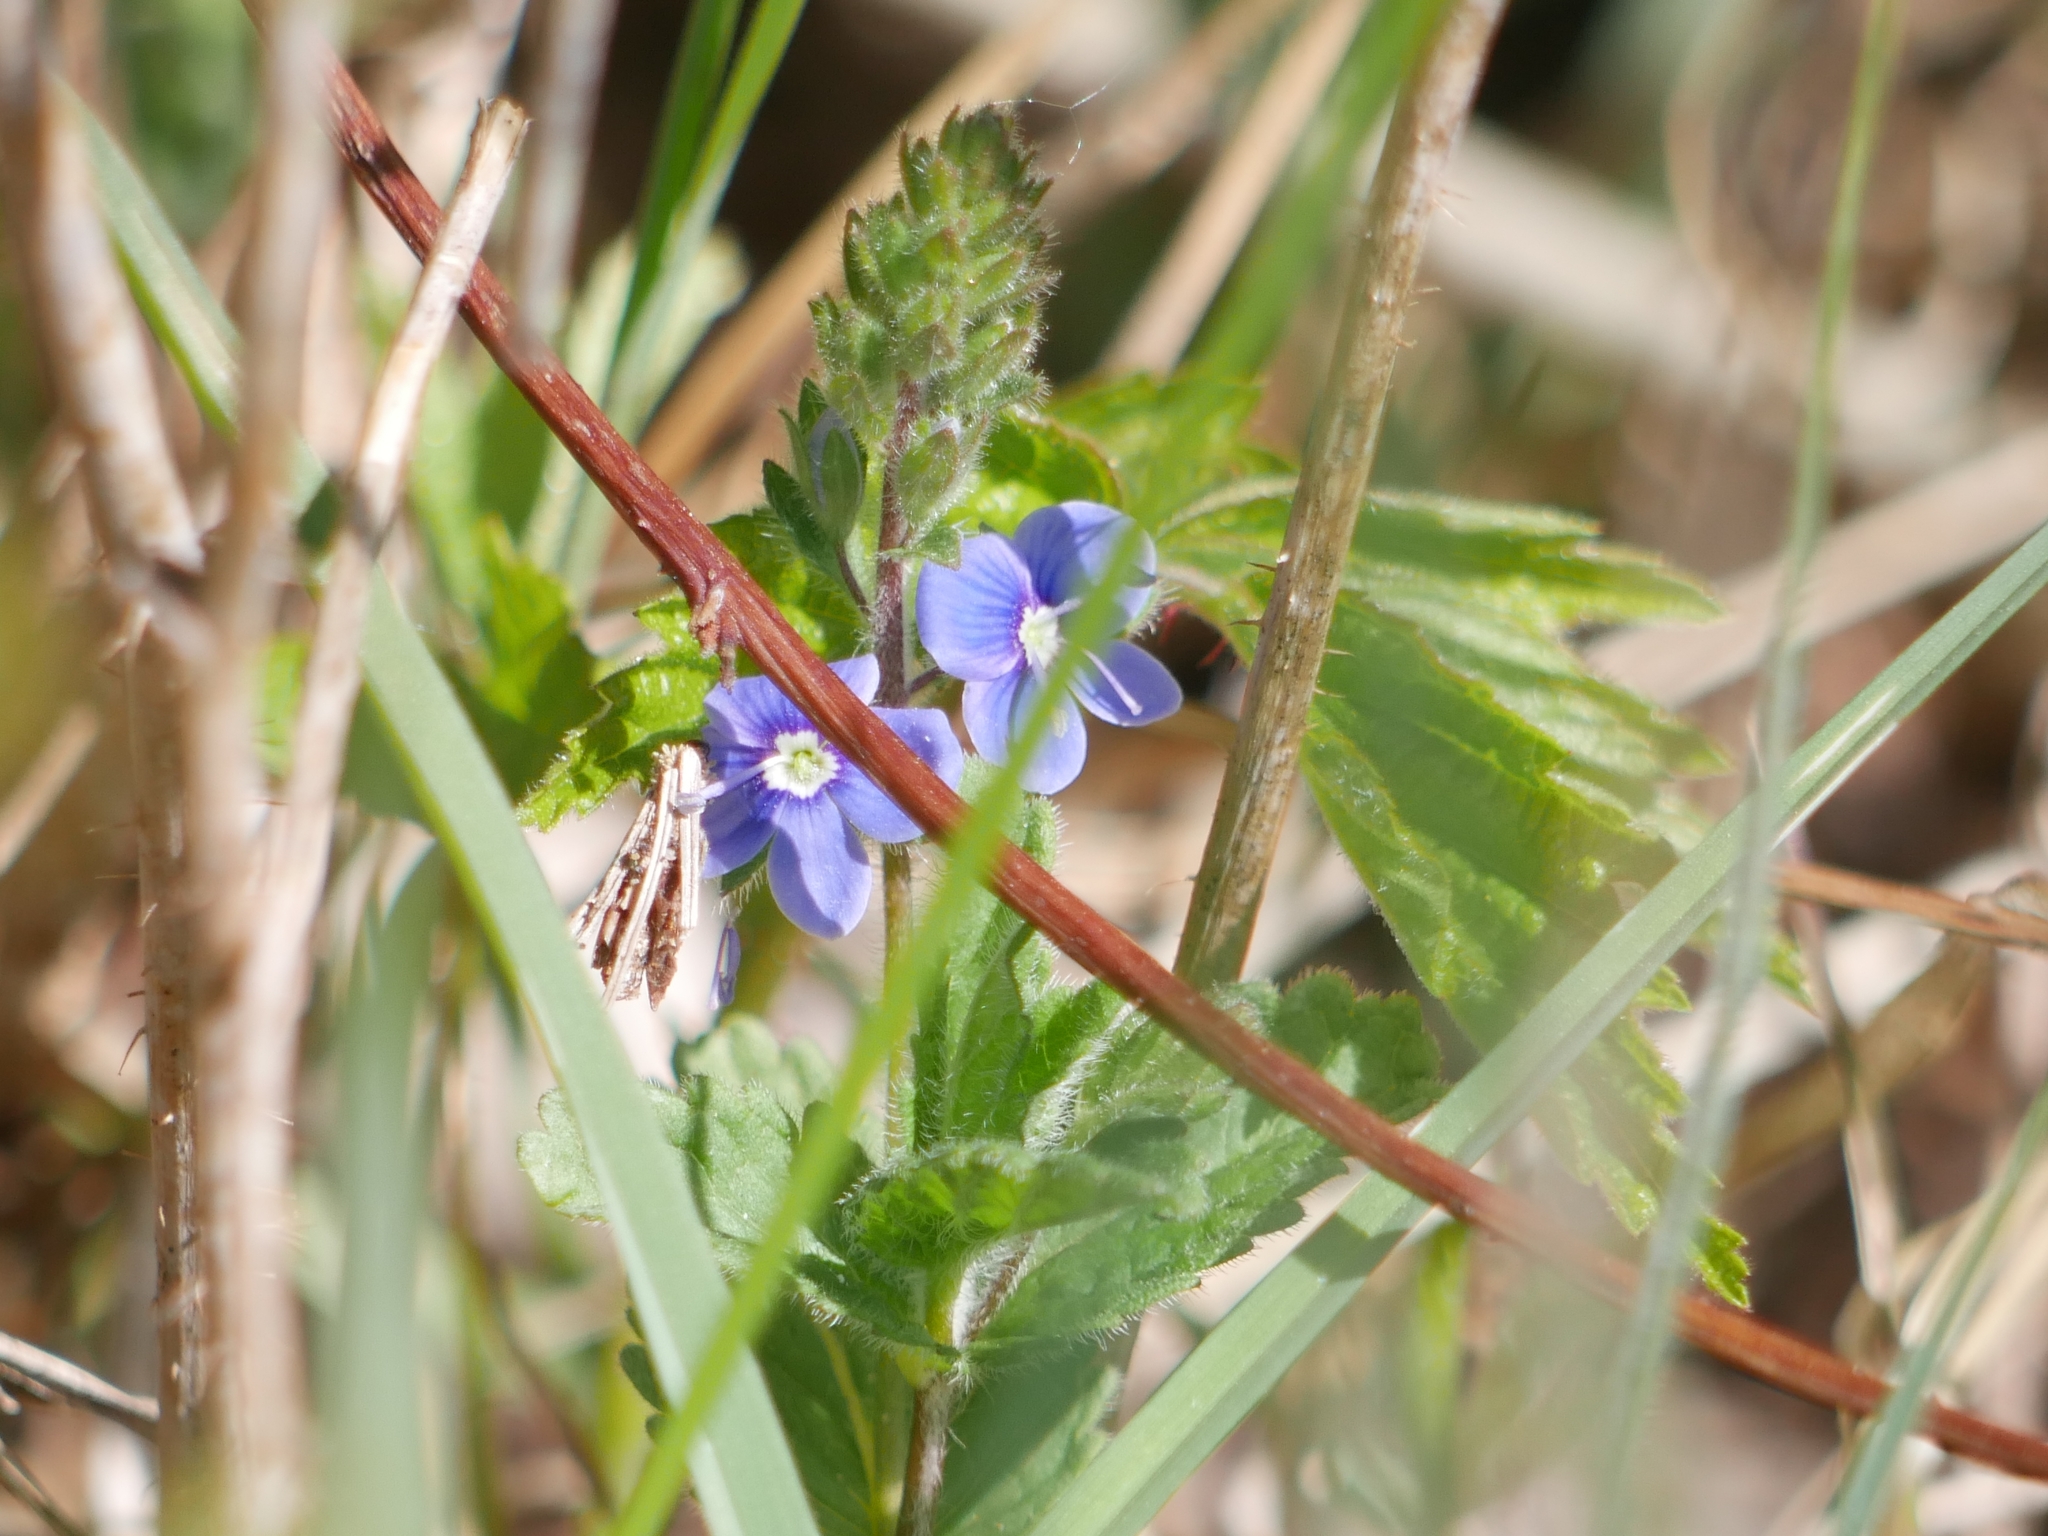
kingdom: Plantae
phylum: Tracheophyta
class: Magnoliopsida
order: Lamiales
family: Plantaginaceae
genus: Veronica
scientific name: Veronica chamaedrys
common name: Germander speedwell
